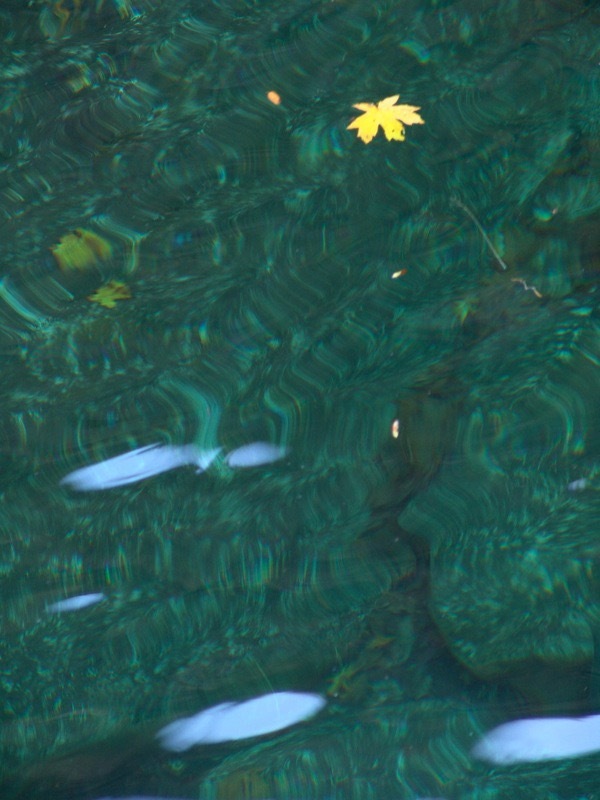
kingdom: Plantae
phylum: Tracheophyta
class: Magnoliopsida
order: Sapindales
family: Sapindaceae
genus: Acer
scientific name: Acer macrophyllum
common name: Oregon maple
